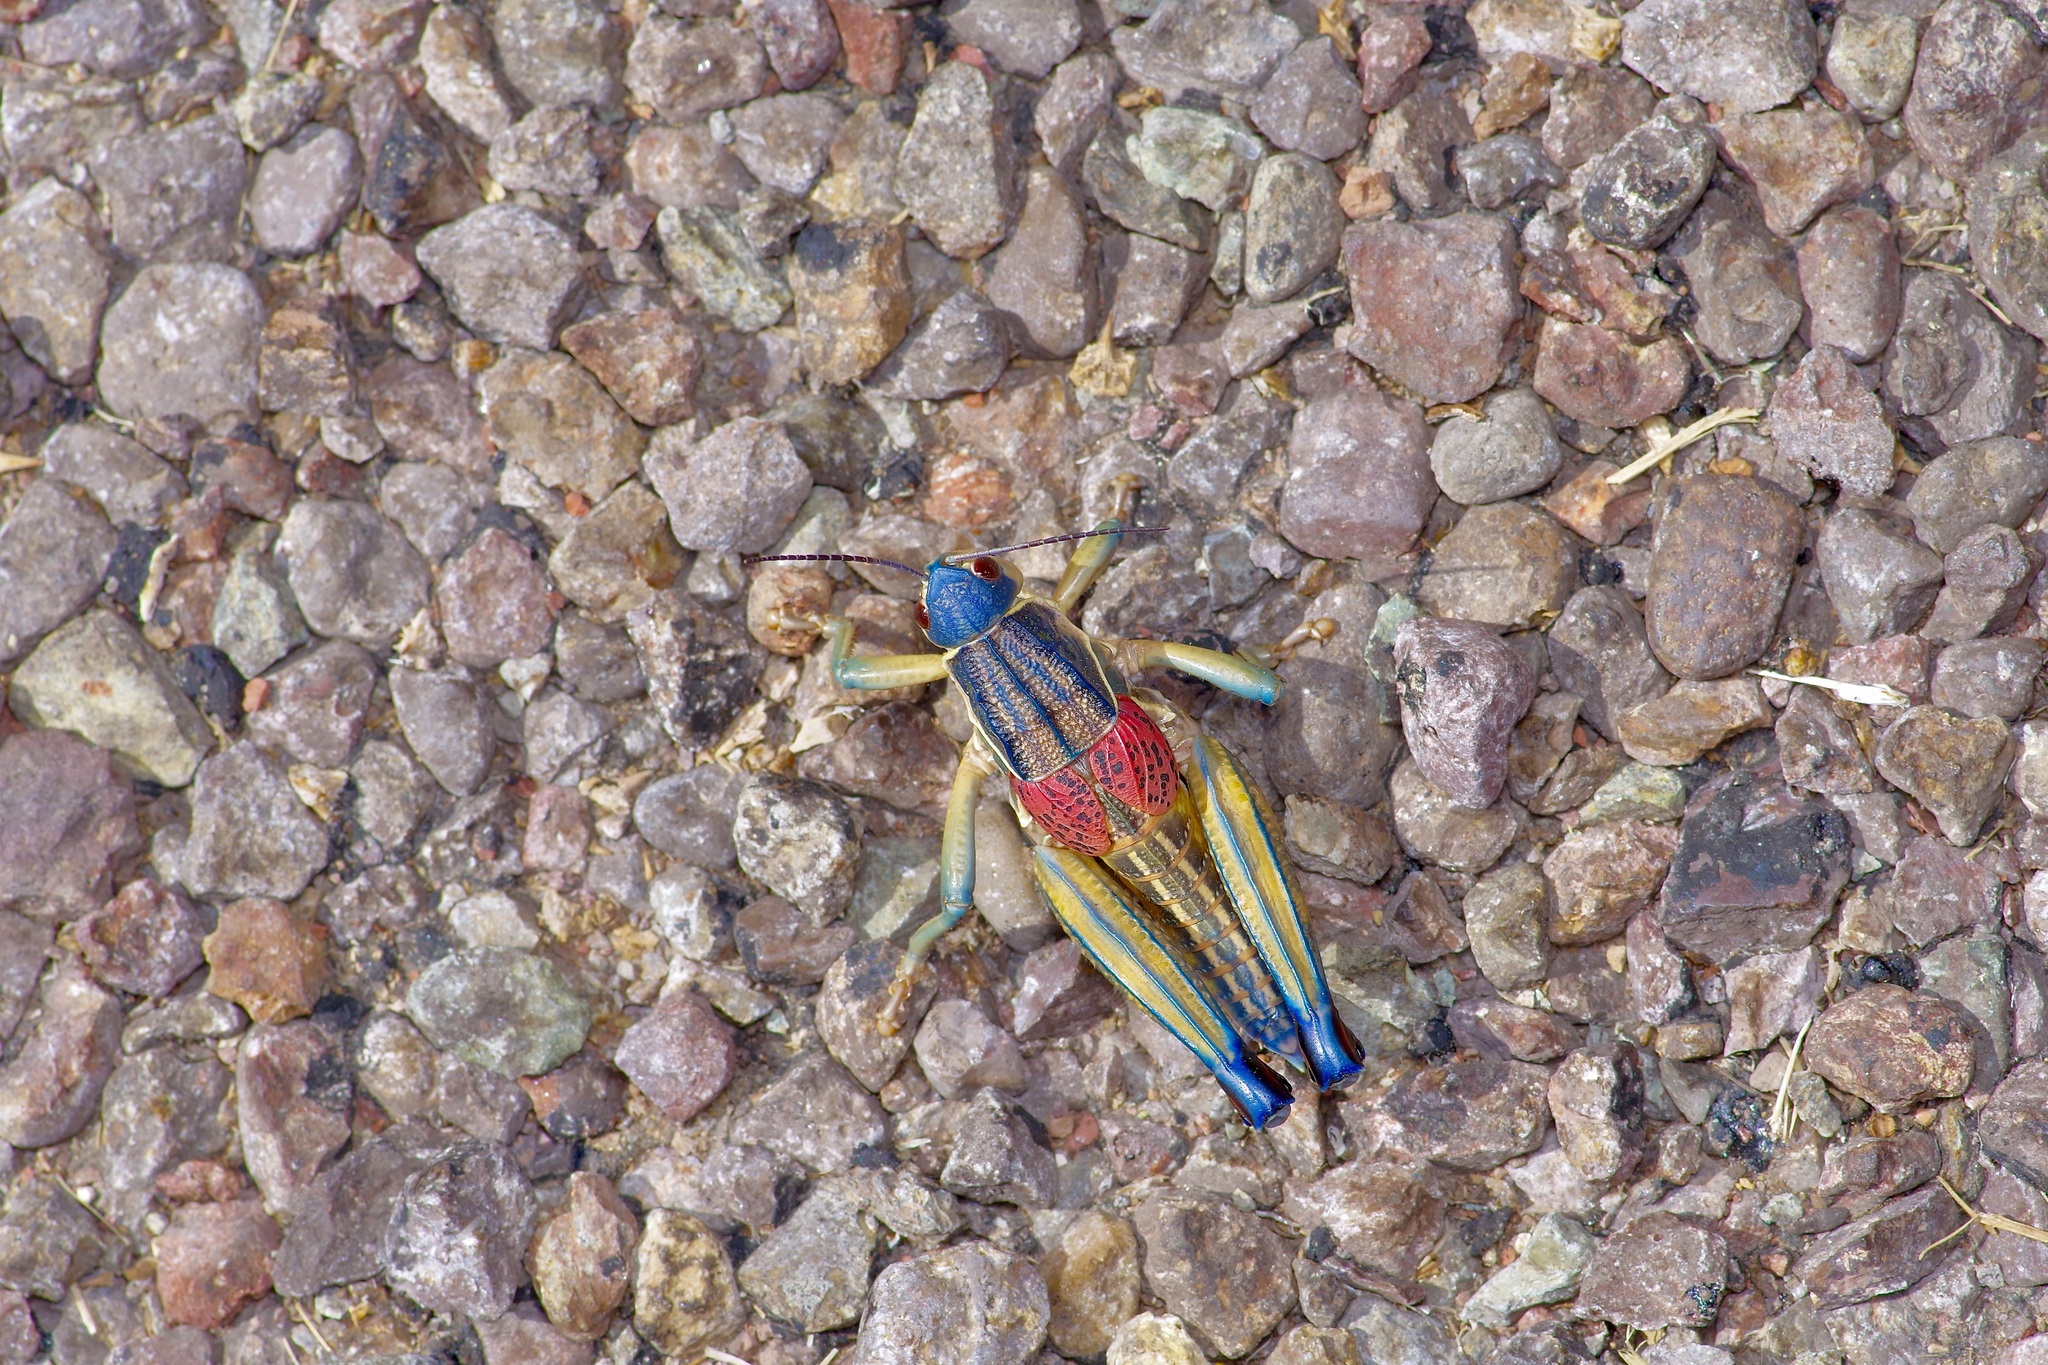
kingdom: Animalia
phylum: Arthropoda
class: Insecta
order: Orthoptera
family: Romaleidae
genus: Brachystola
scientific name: Brachystola magna
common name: Plains lubber grasshopper
